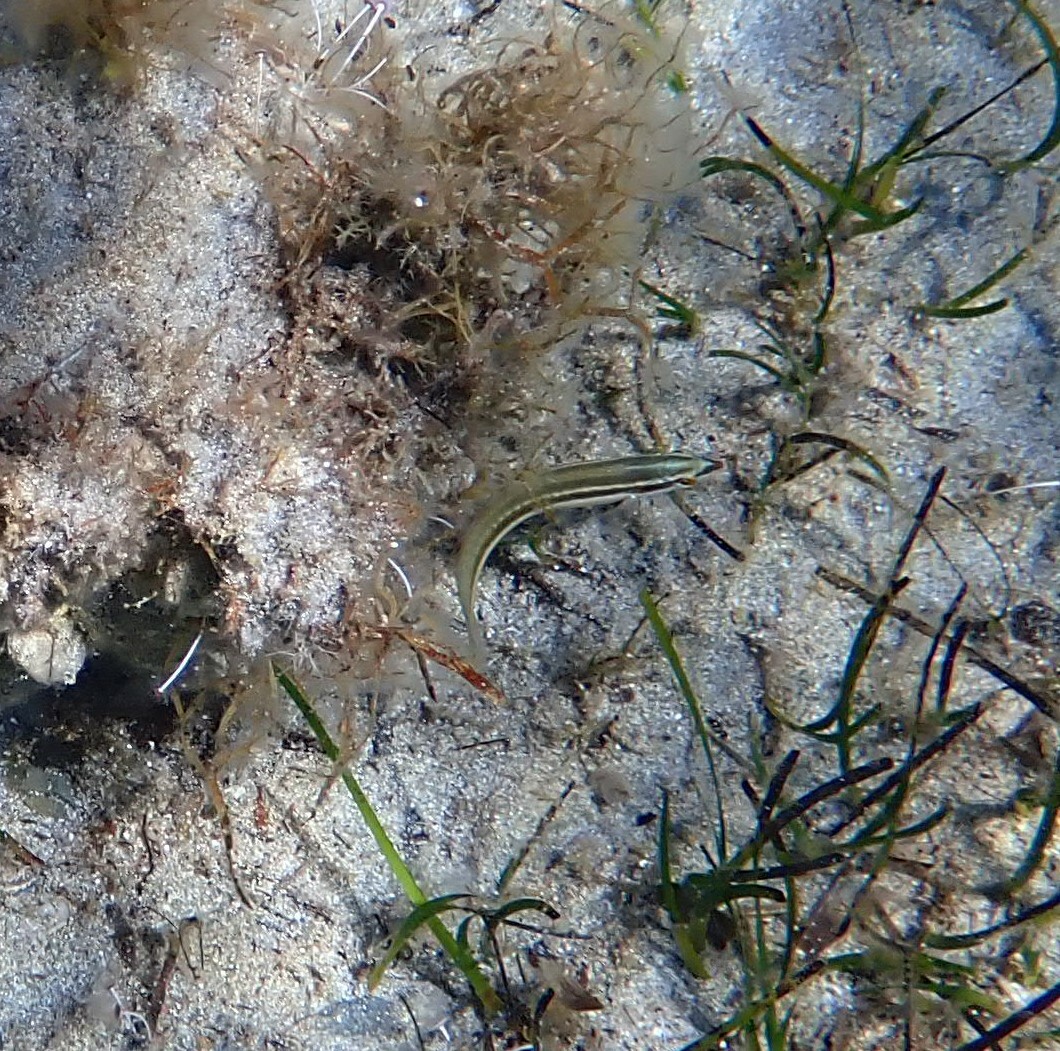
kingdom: Animalia
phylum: Chordata
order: Perciformes
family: Labridae
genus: Coris
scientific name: Coris julis
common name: Rainbow wrasse
